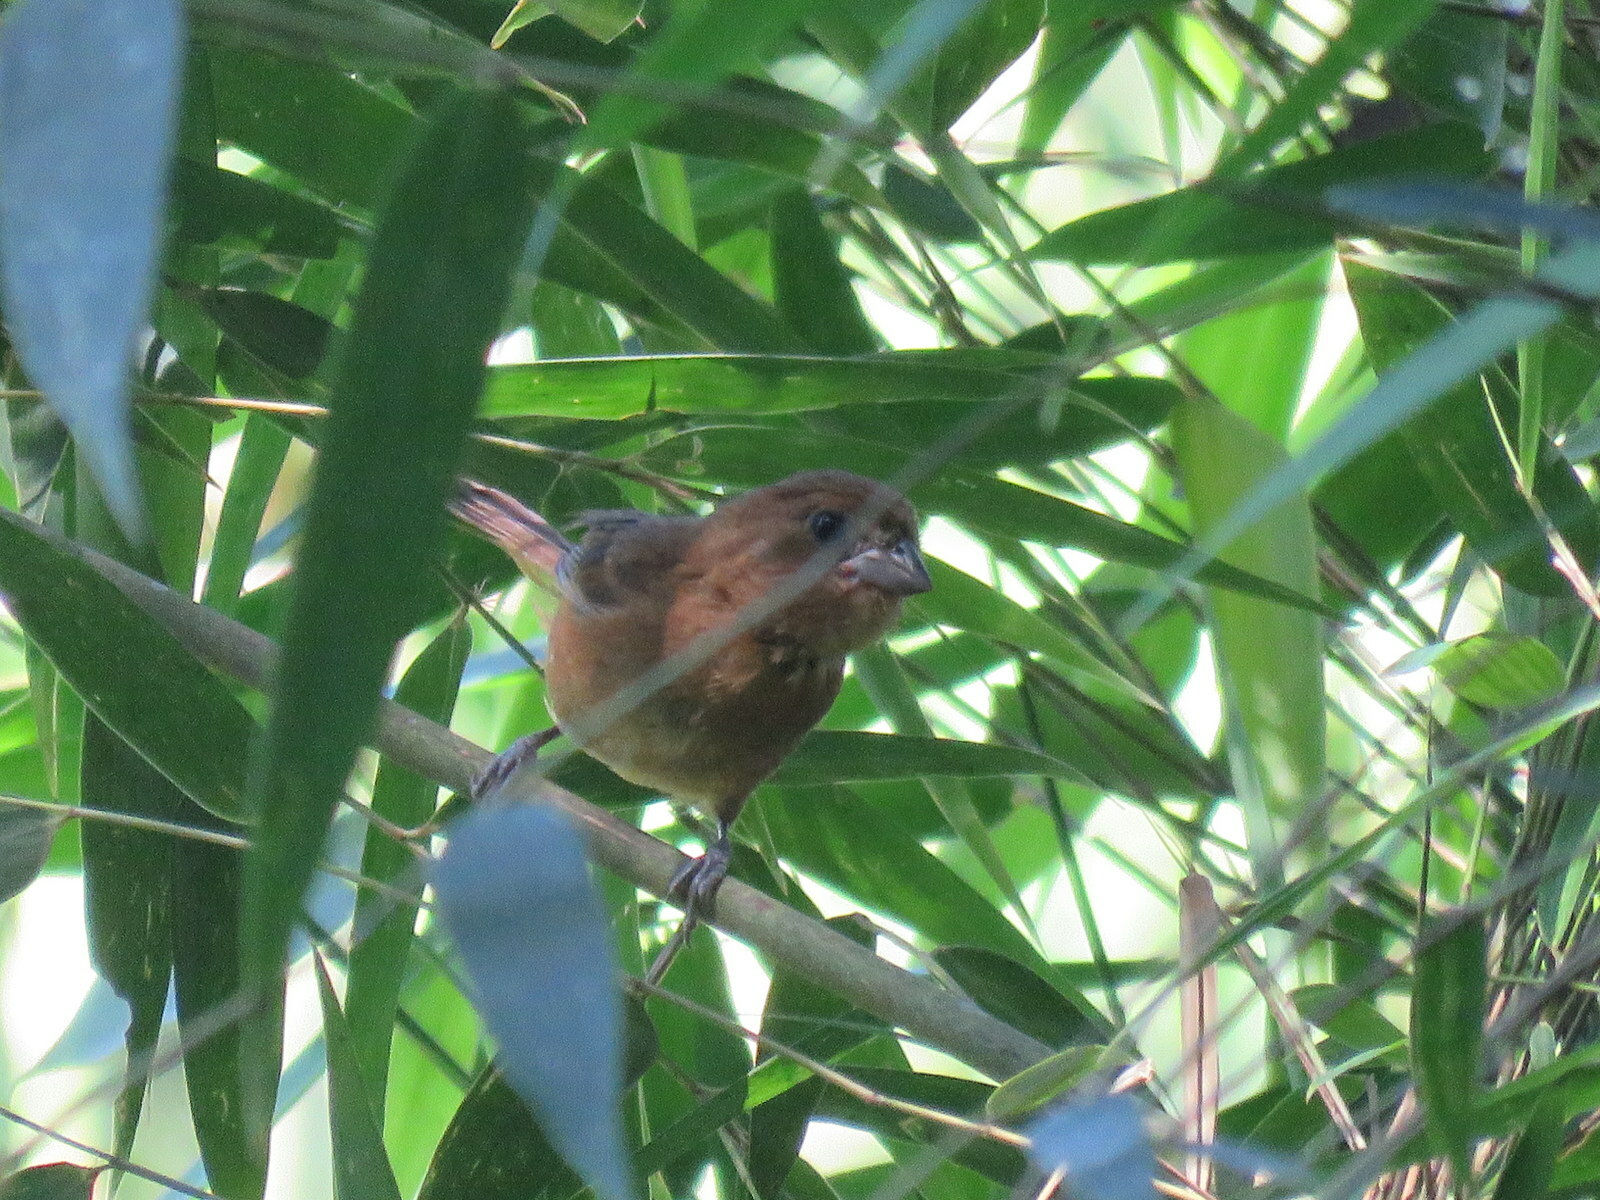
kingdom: Animalia
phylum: Chordata
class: Aves
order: Passeriformes
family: Cardinalidae
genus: Amaurospiza
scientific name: Amaurospiza moesta
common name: Blackish-blue seedeater
